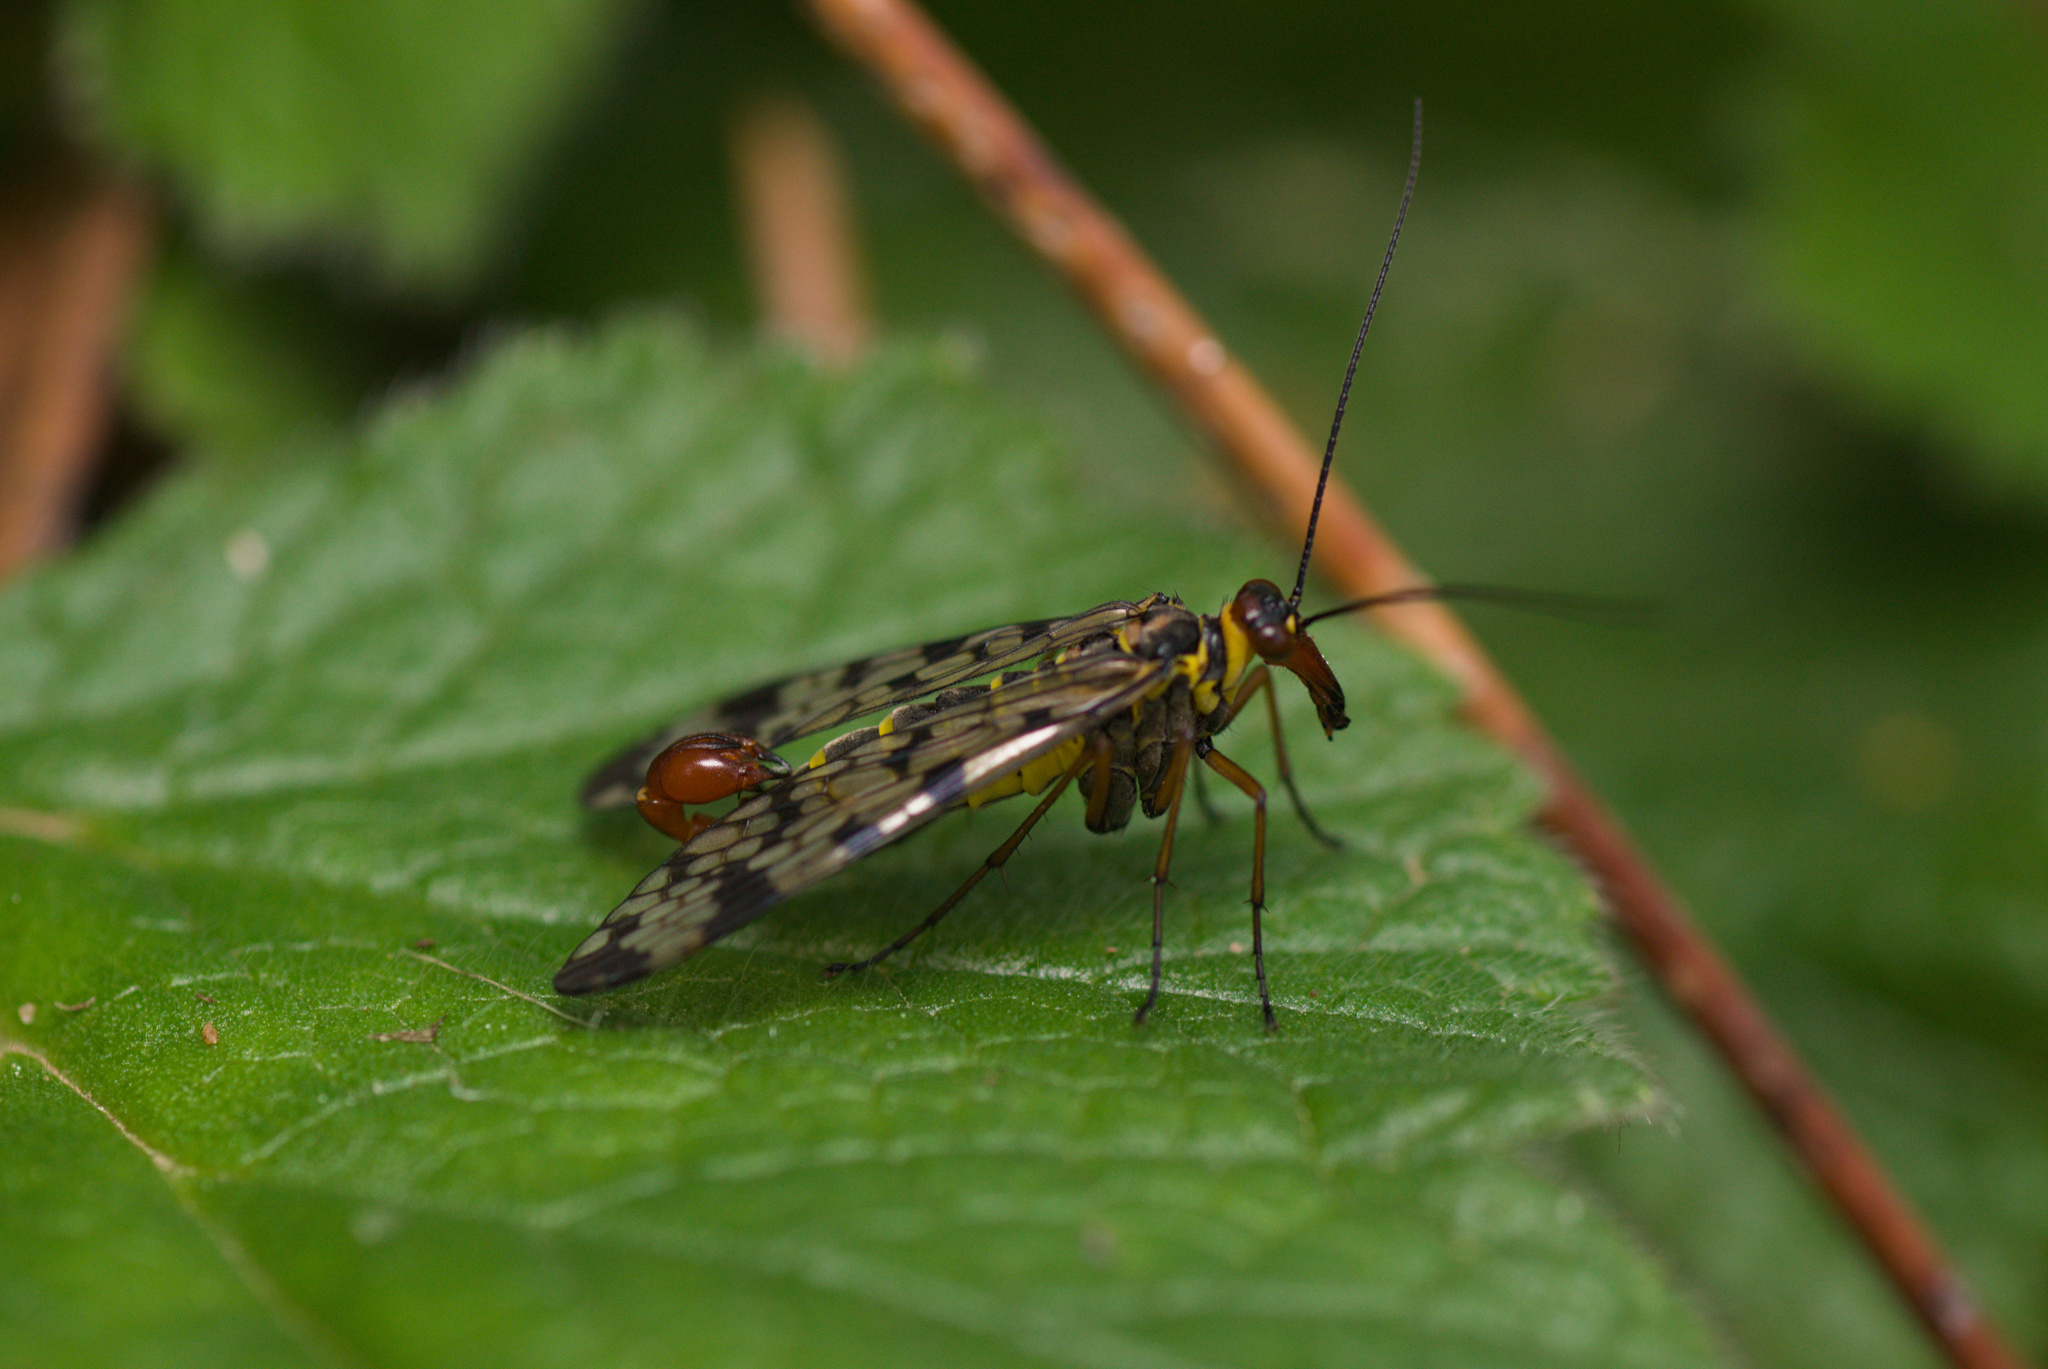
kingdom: Animalia
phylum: Arthropoda
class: Insecta
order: Mecoptera
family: Panorpidae
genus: Panorpa
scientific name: Panorpa meridionalis
